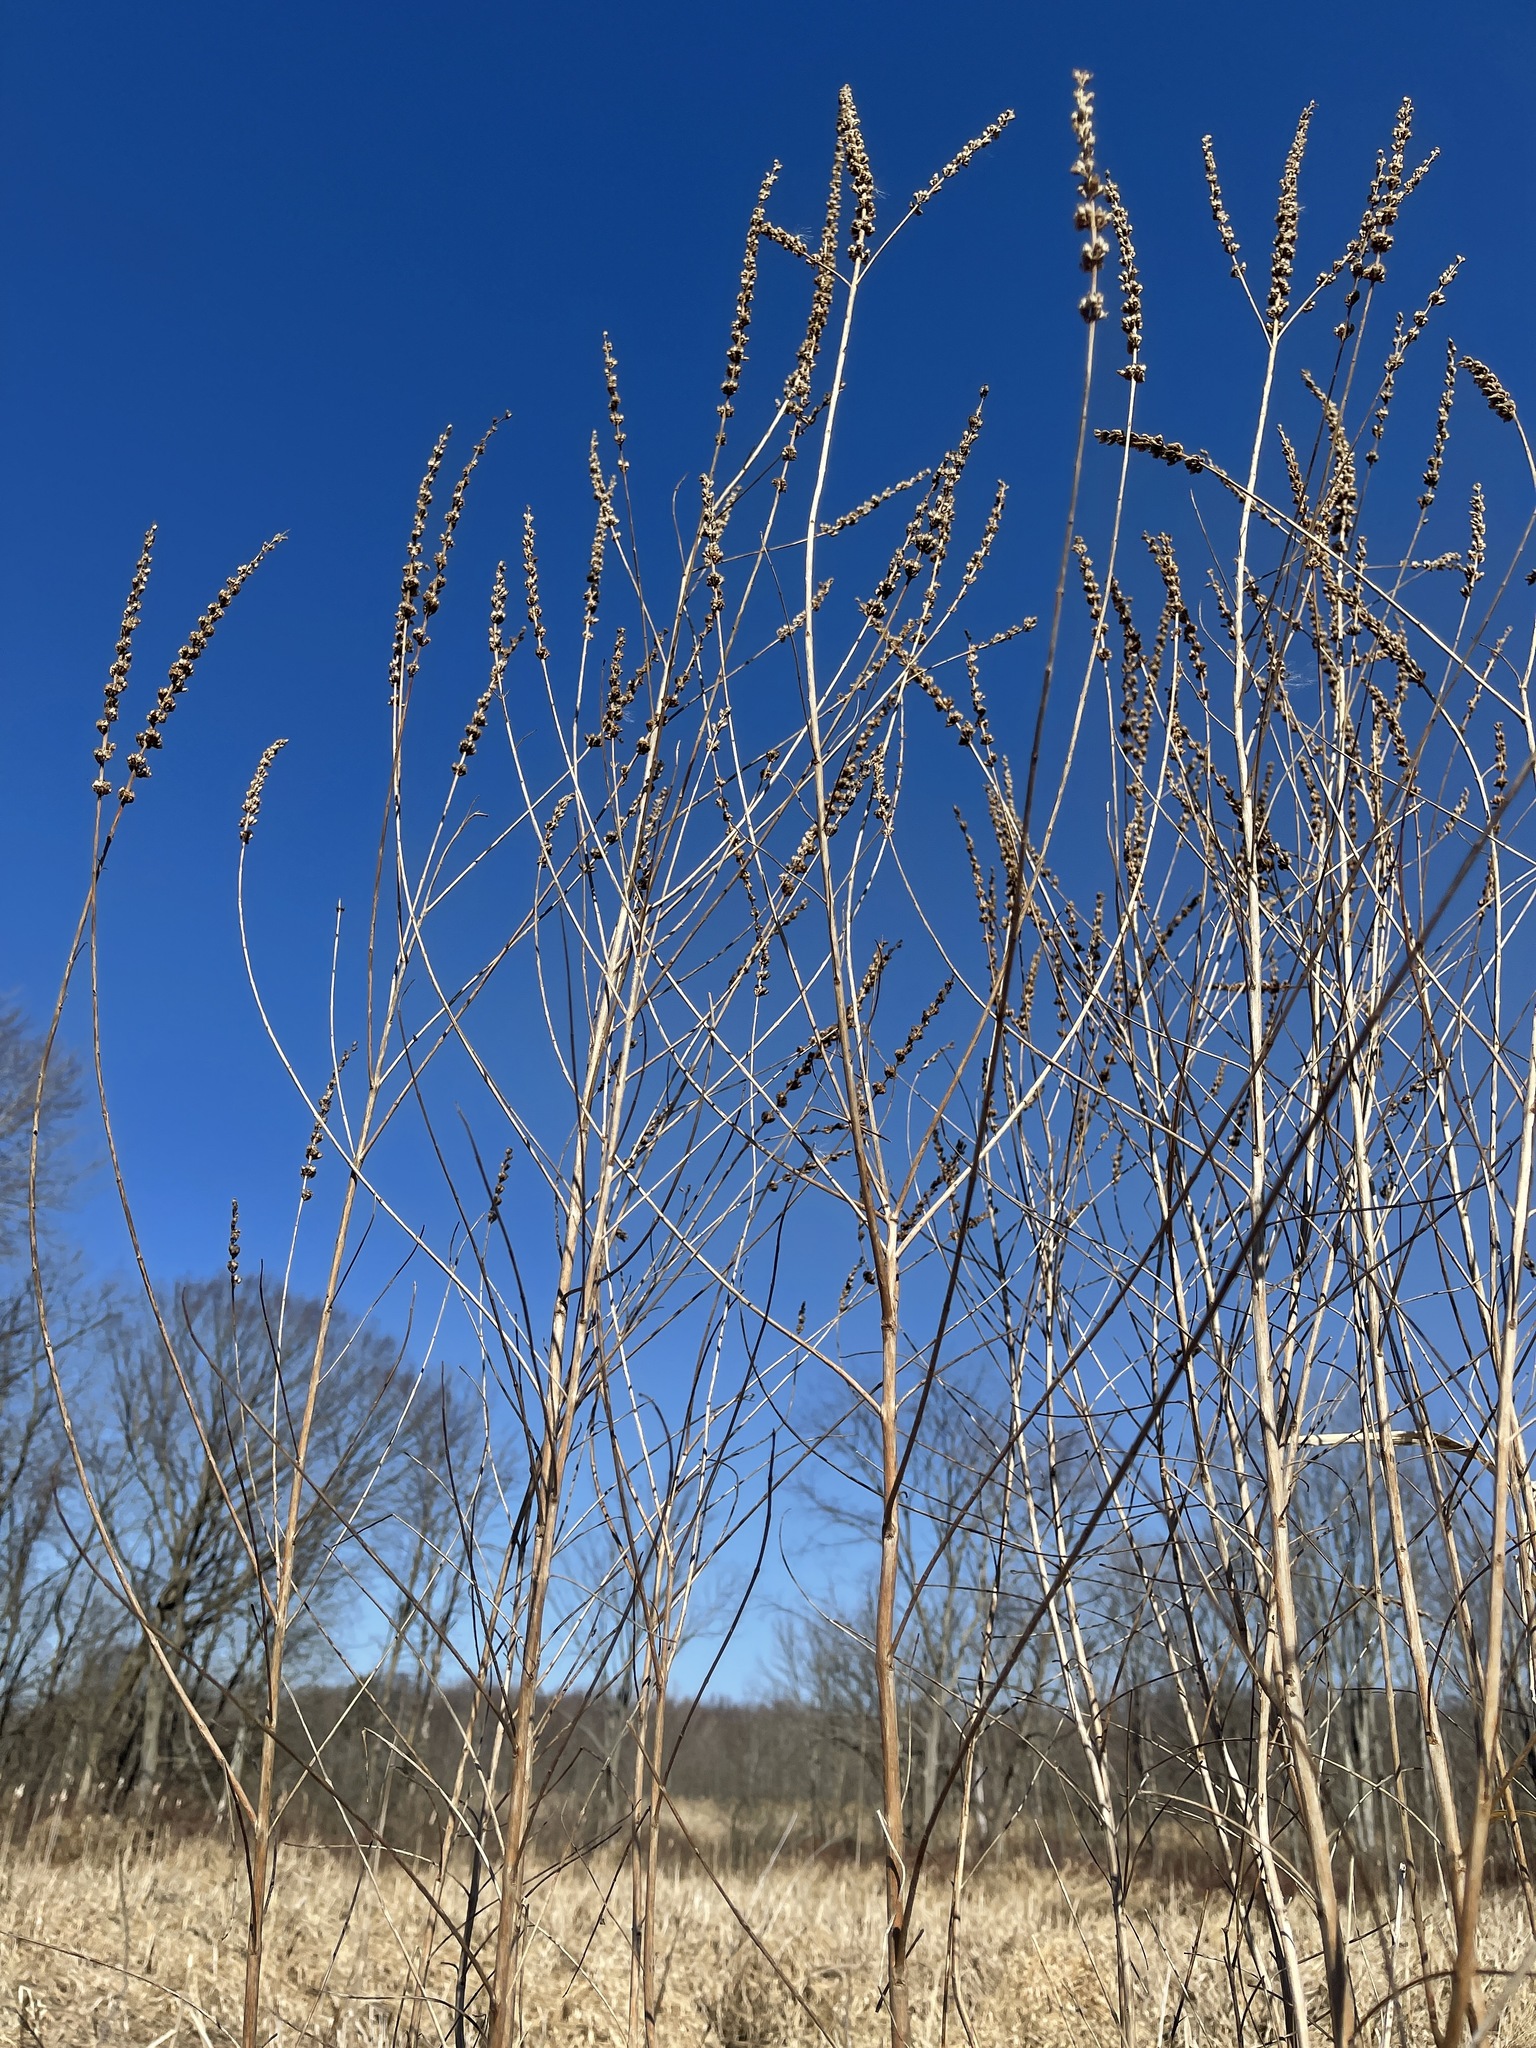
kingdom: Plantae
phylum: Tracheophyta
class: Magnoliopsida
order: Myrtales
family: Lythraceae
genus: Lythrum
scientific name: Lythrum salicaria
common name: Purple loosestrife
